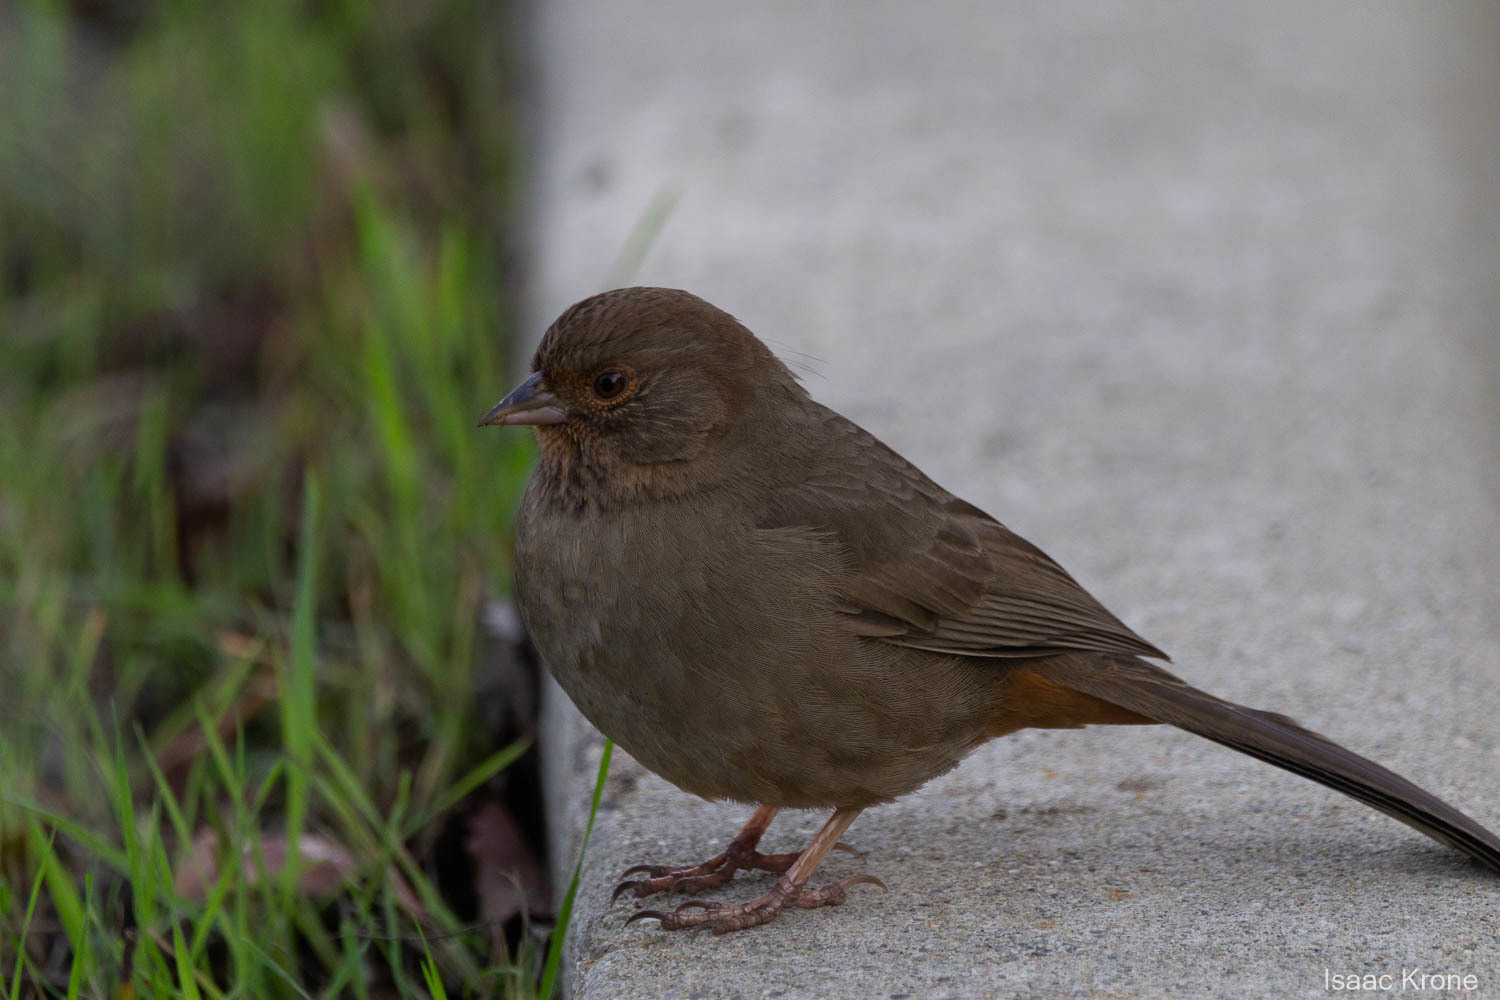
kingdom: Animalia
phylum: Chordata
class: Aves
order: Passeriformes
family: Passerellidae
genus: Melozone
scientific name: Melozone crissalis
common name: California towhee
